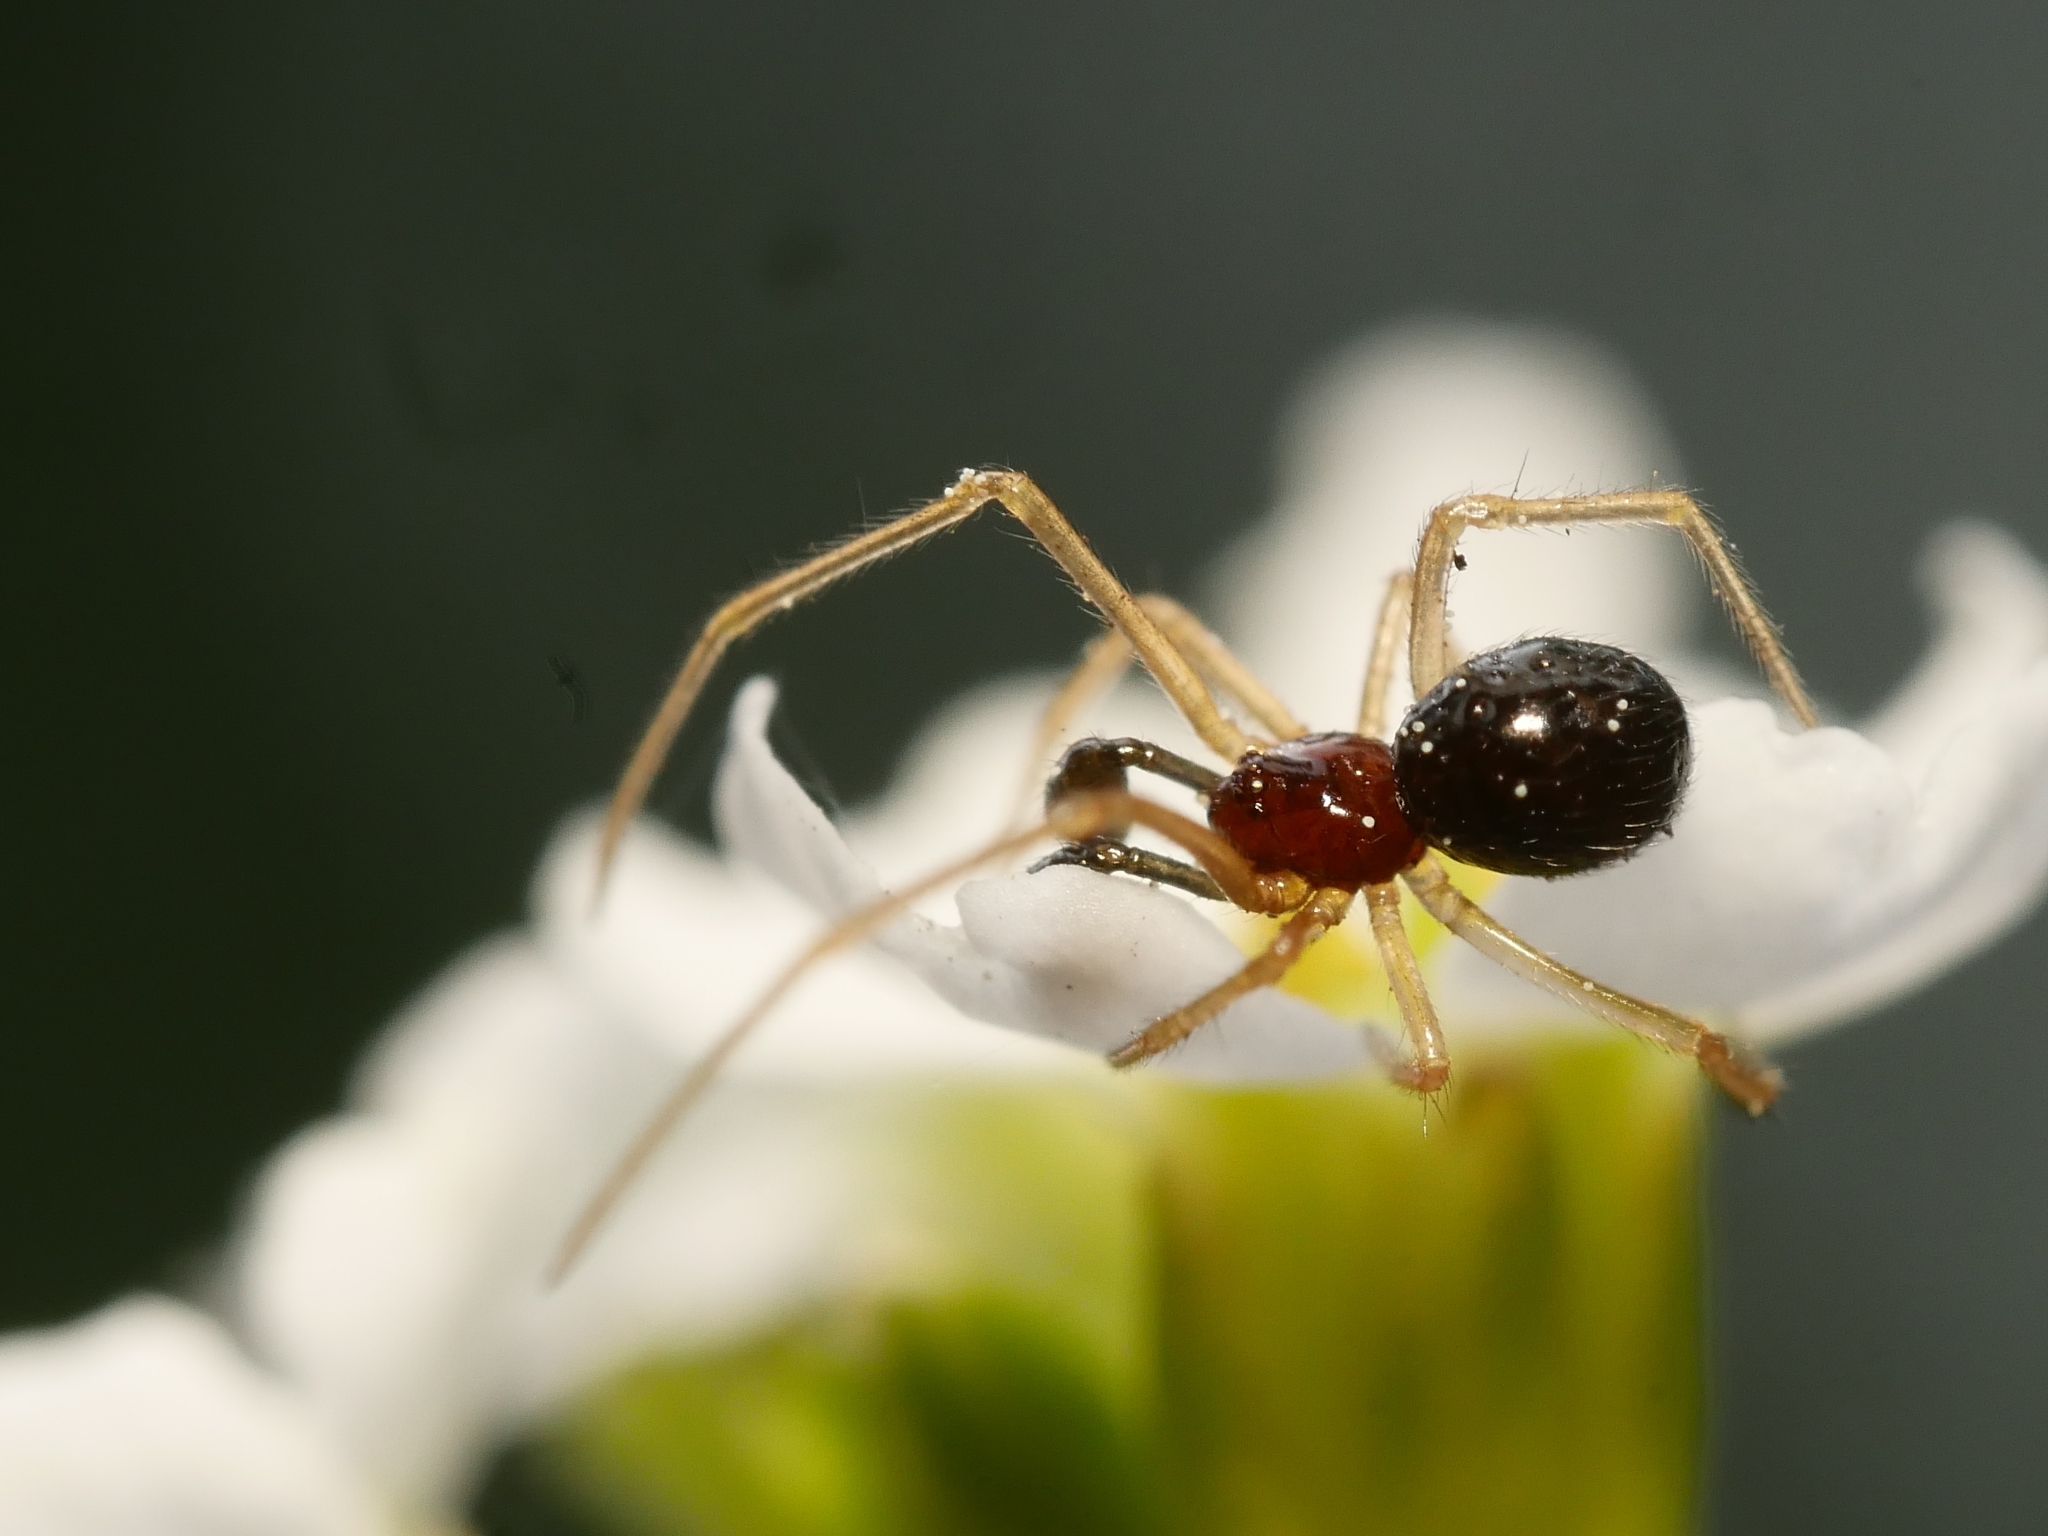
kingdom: Animalia
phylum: Arthropoda
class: Arachnida
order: Araneae
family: Theridiidae
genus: Neottiura
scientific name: Neottiura bimaculata
